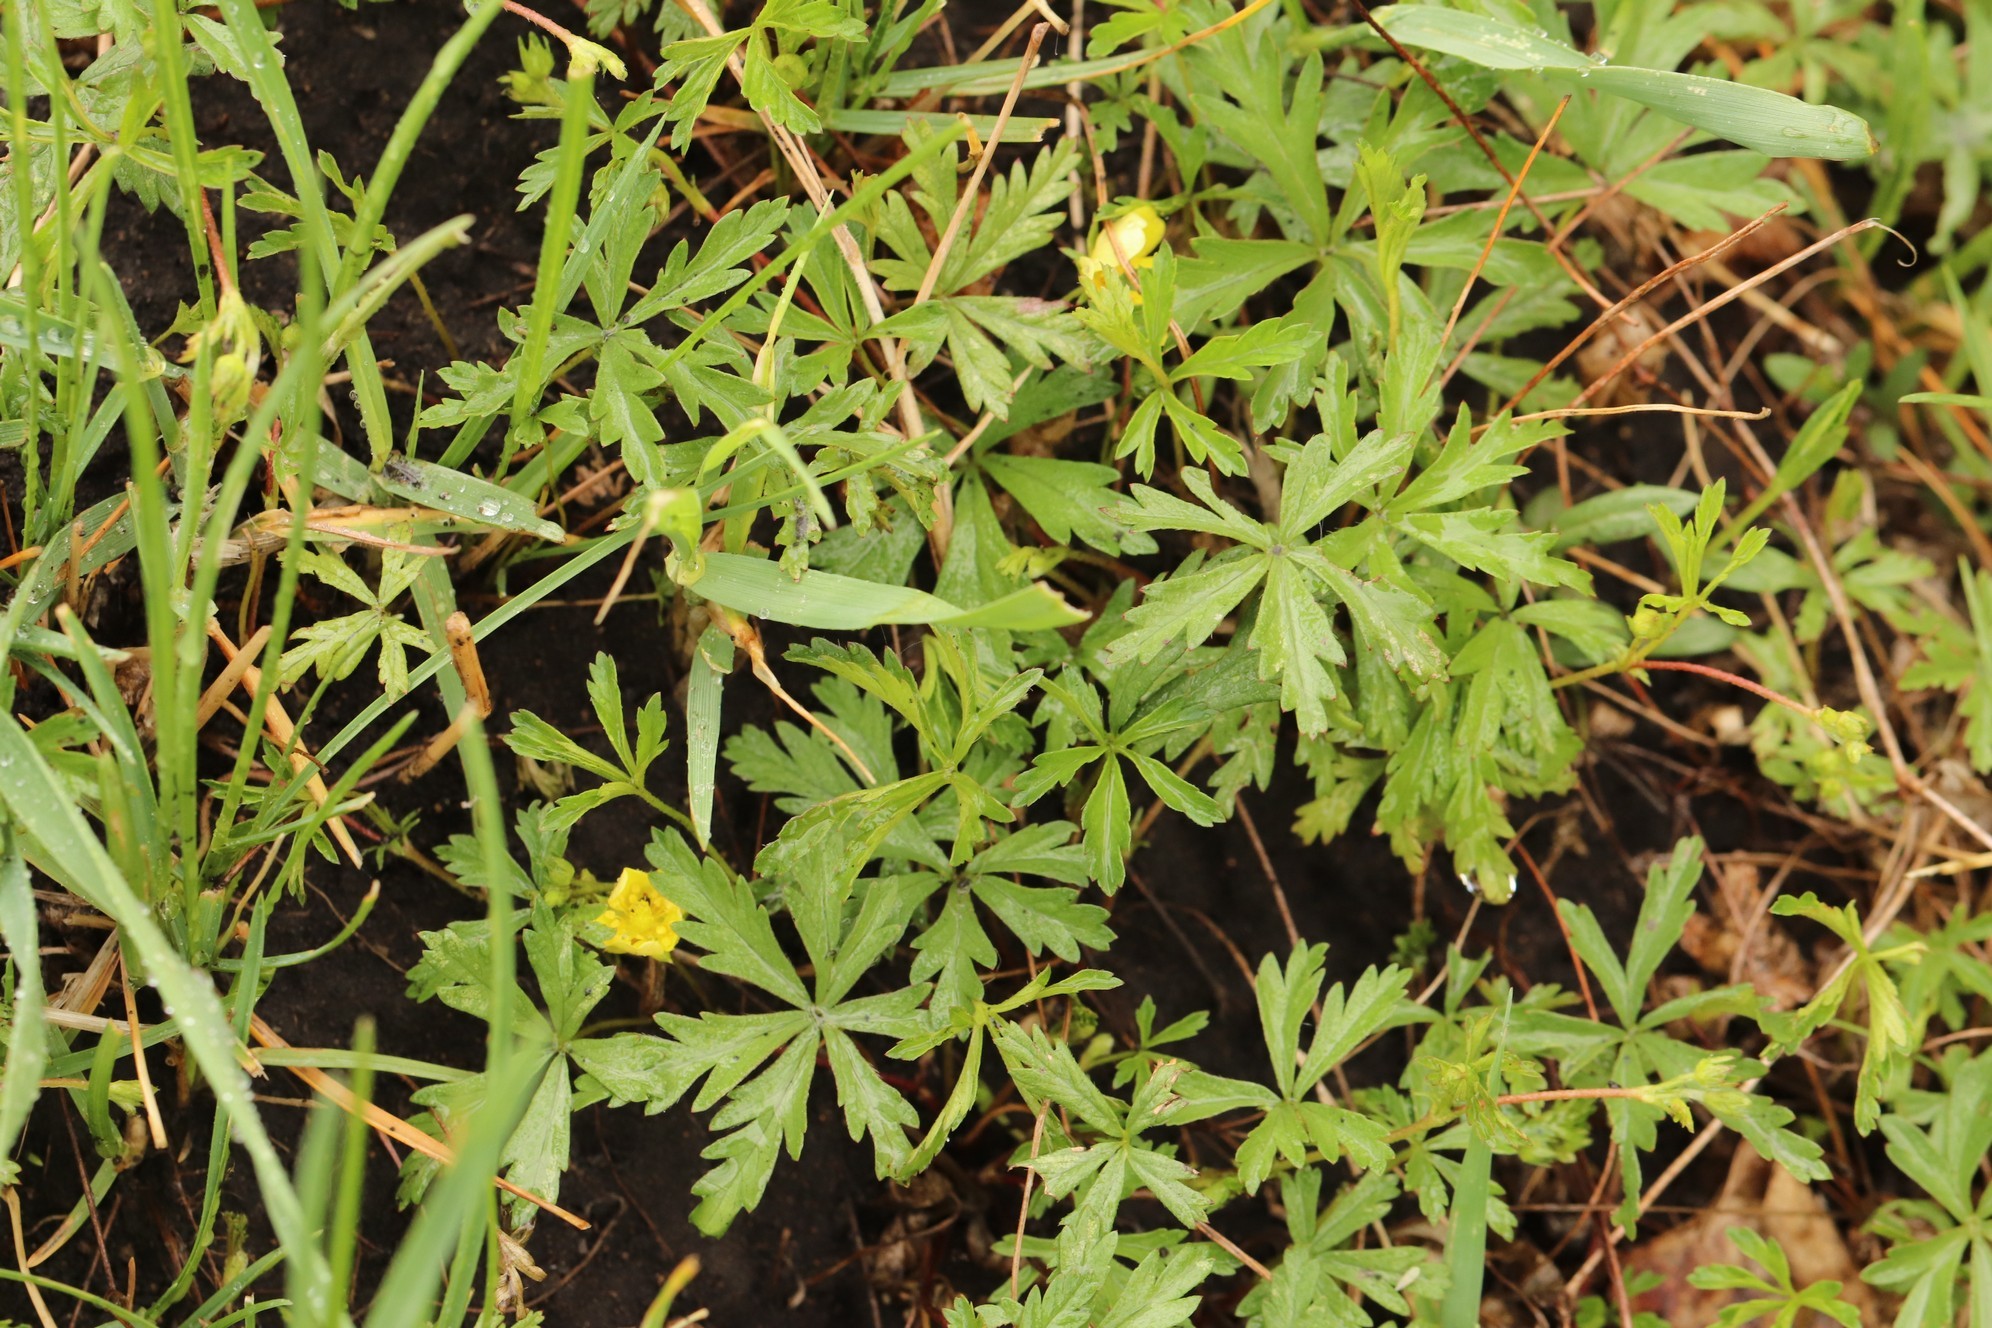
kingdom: Plantae
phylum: Tracheophyta
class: Magnoliopsida
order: Rosales
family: Rosaceae
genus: Potentilla
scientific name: Potentilla flagellaris
